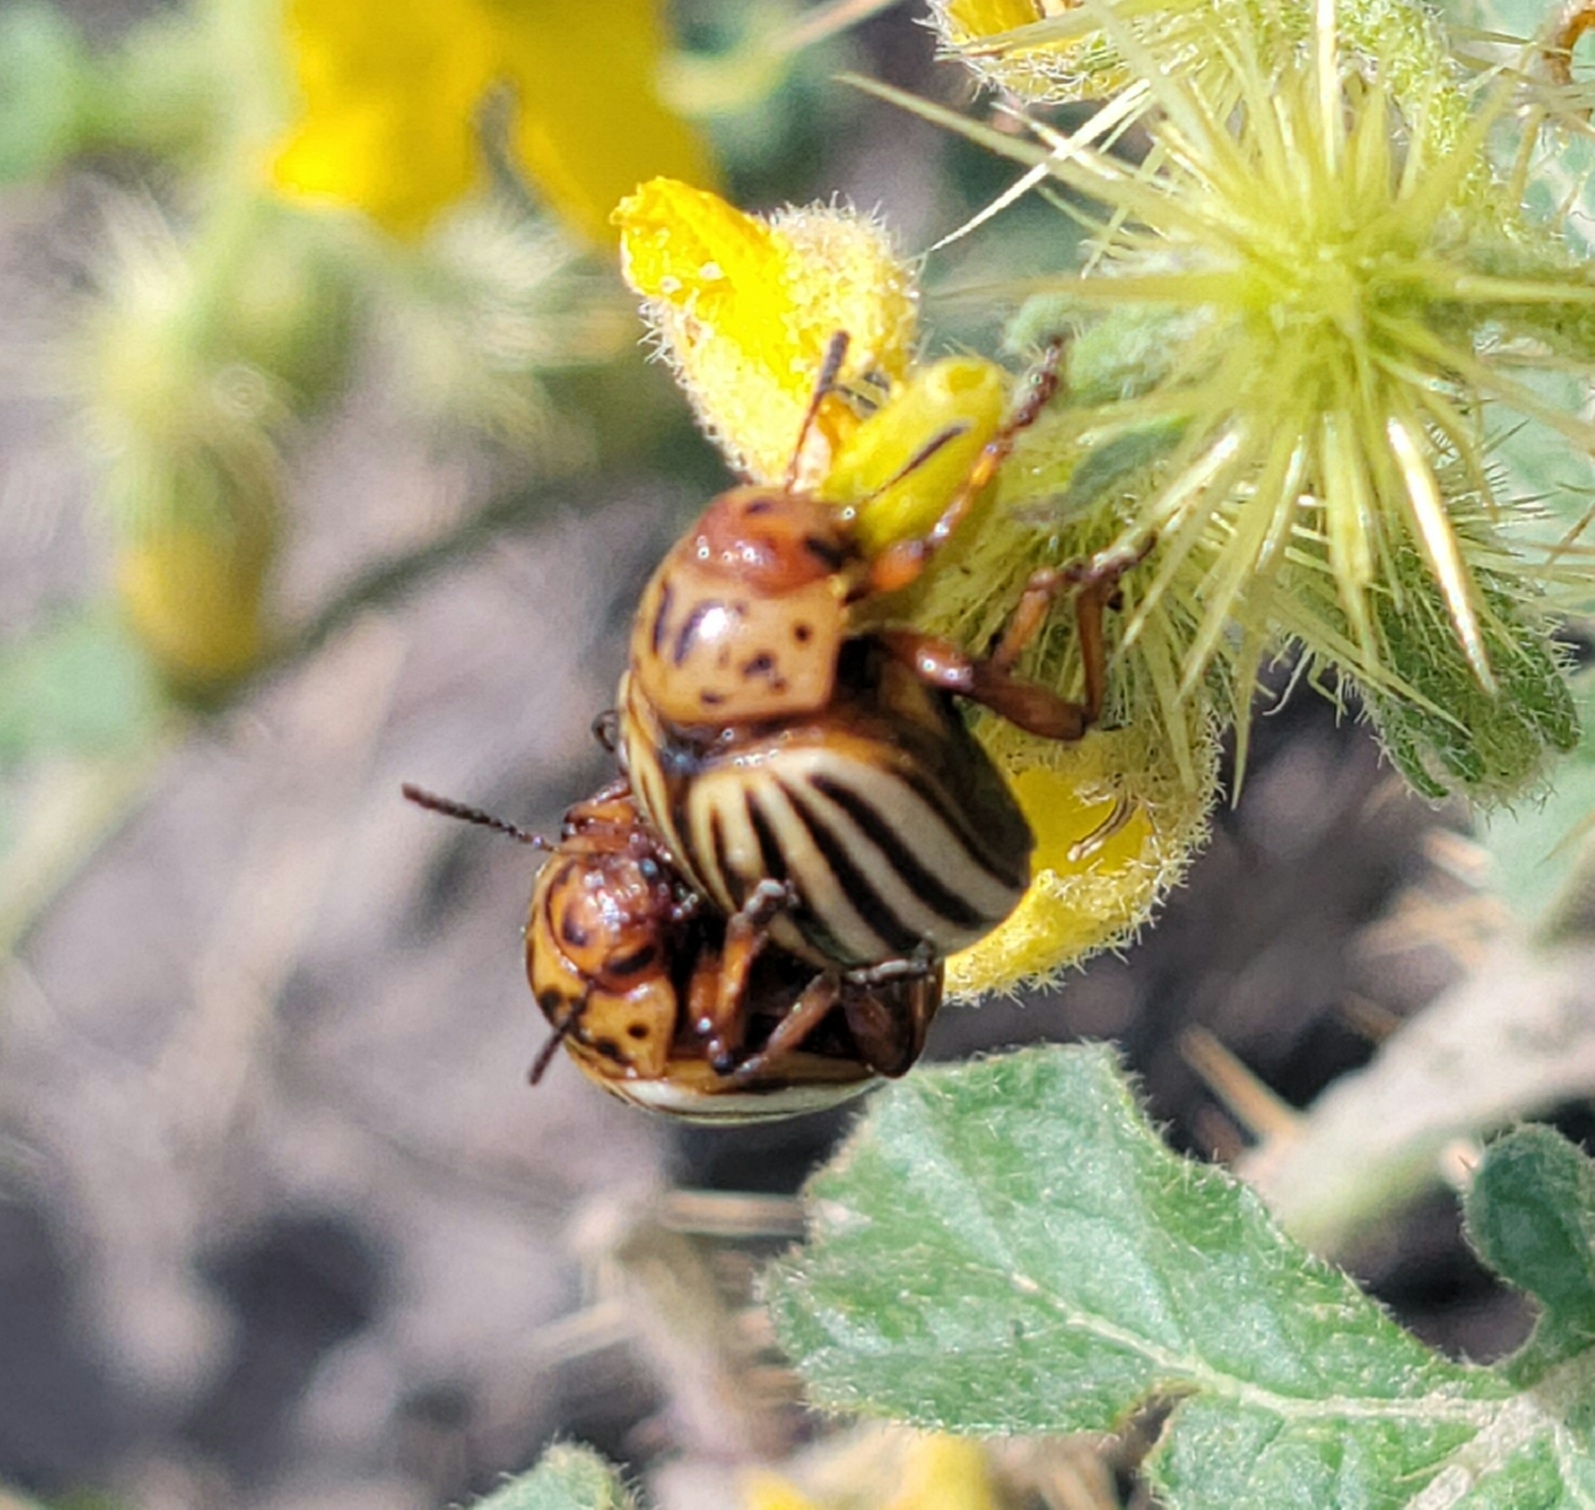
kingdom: Animalia
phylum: Arthropoda
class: Insecta
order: Coleoptera
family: Chrysomelidae
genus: Leptinotarsa
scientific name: Leptinotarsa decemlineata
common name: Colorado potato beetle
